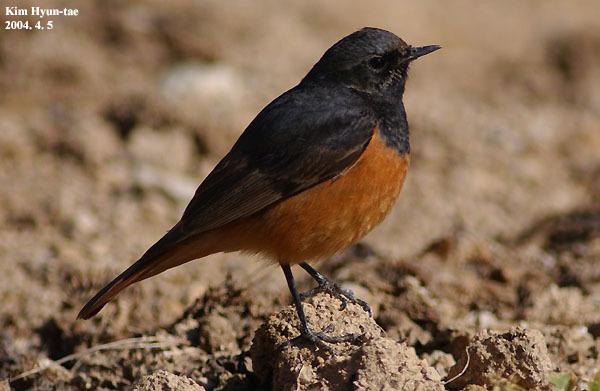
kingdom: Animalia
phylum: Chordata
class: Aves
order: Passeriformes
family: Muscicapidae
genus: Phoenicurus
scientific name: Phoenicurus ochruros
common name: Black redstart
